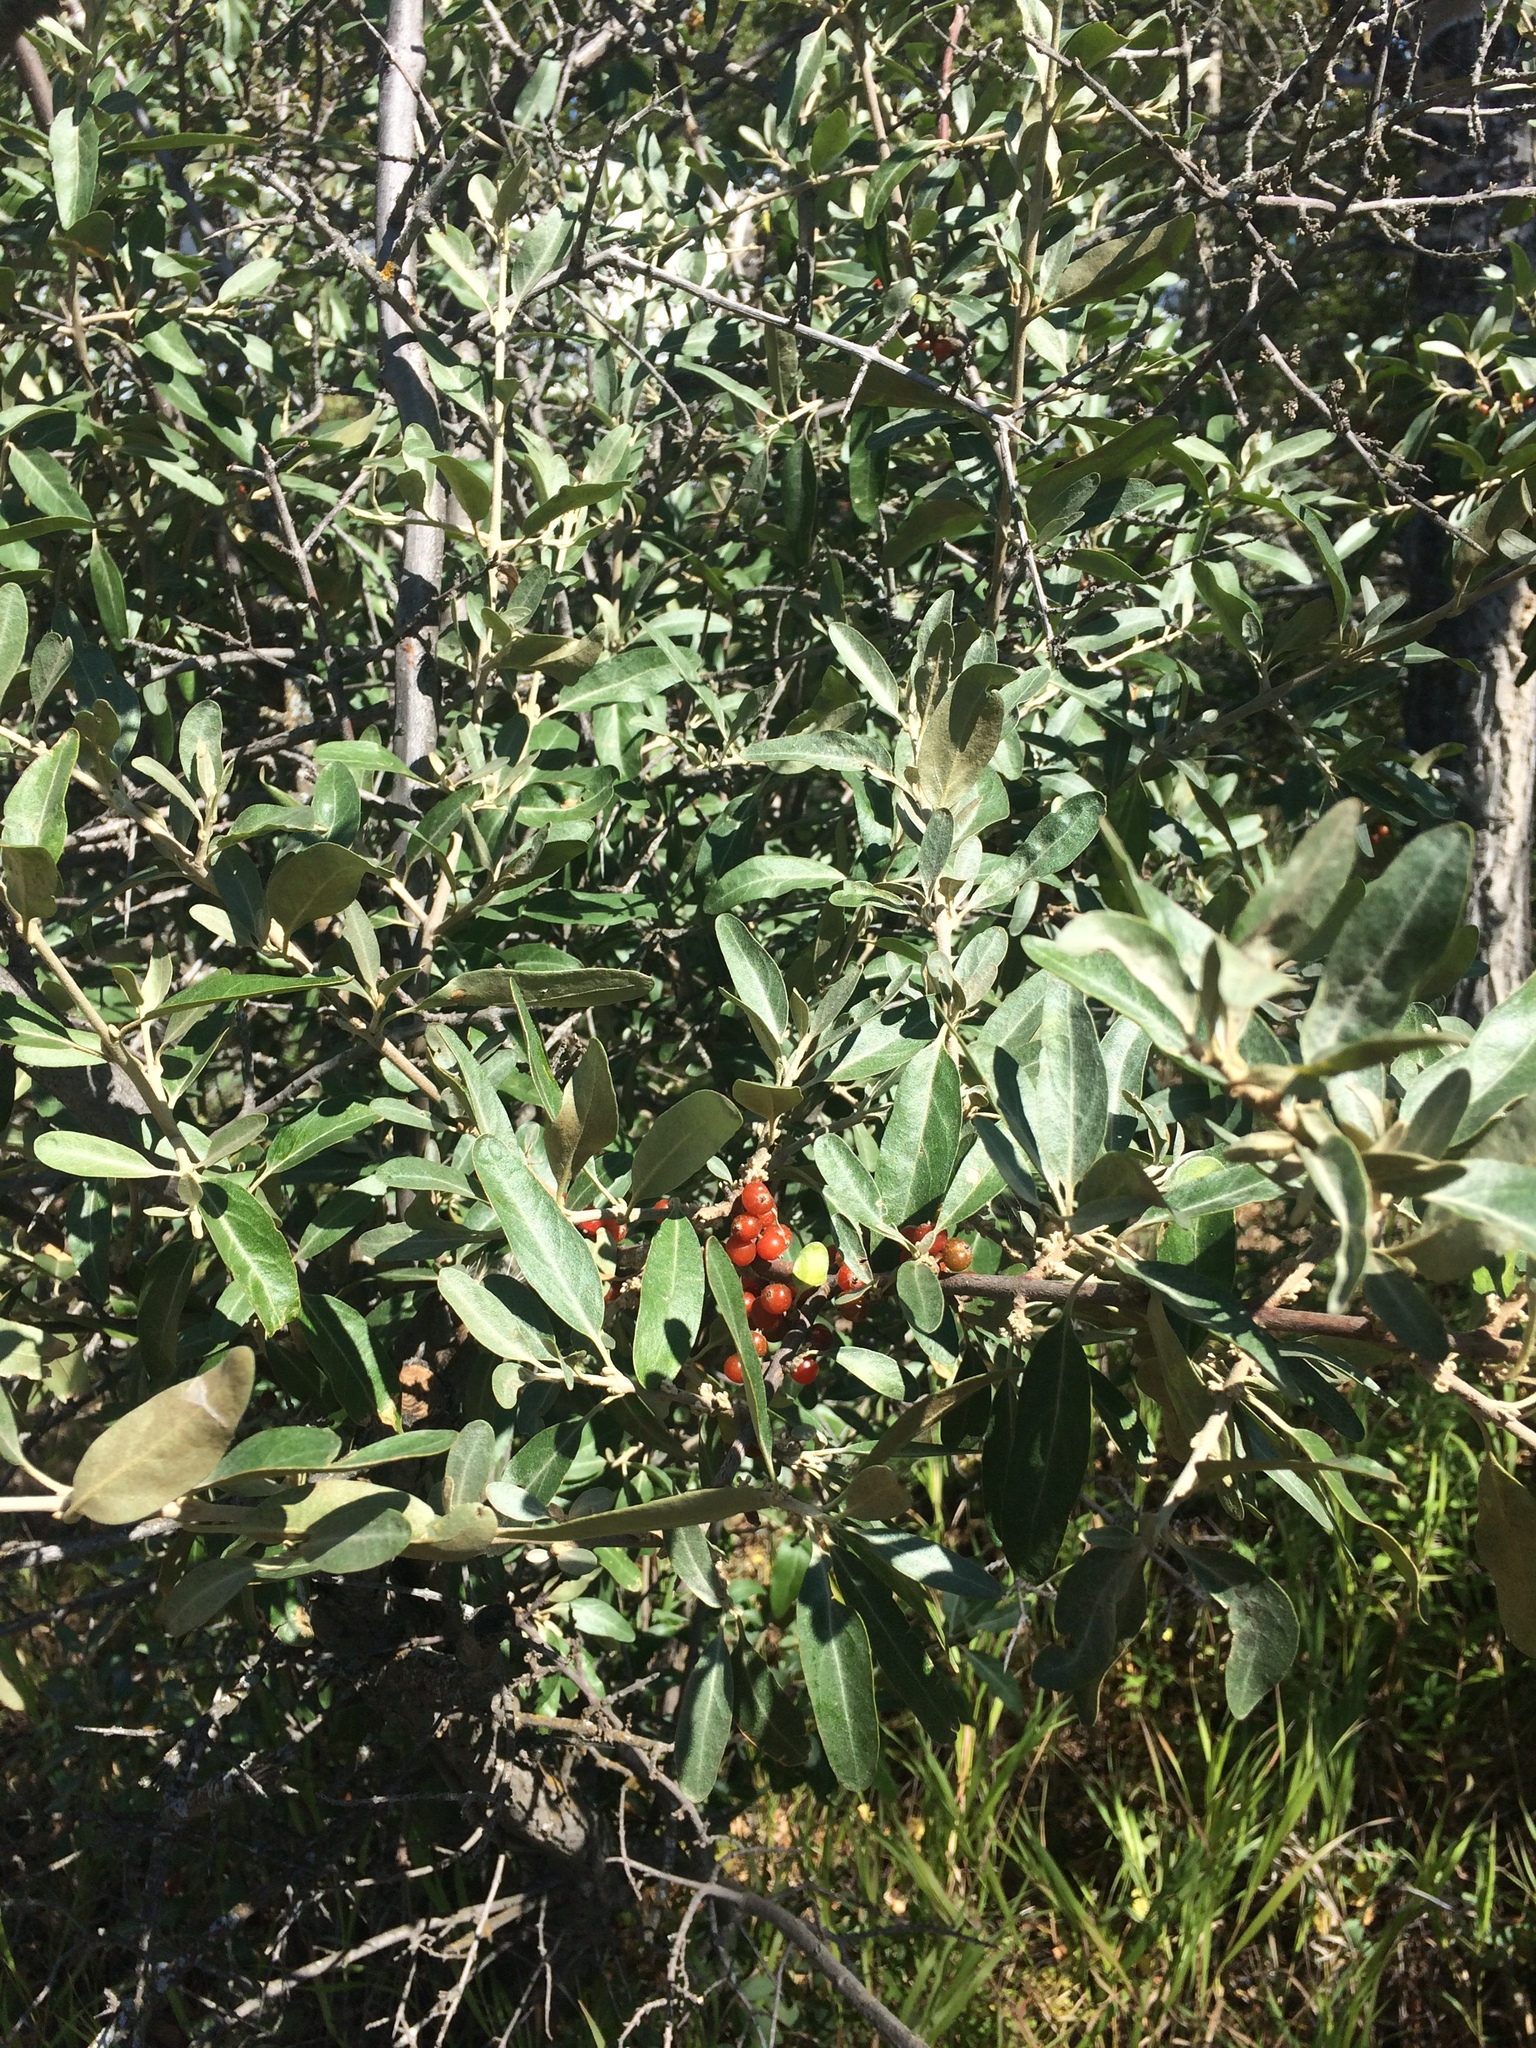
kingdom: Plantae
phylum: Tracheophyta
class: Magnoliopsida
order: Rosales
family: Elaeagnaceae
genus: Shepherdia
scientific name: Shepherdia argentea
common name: Silver buffaloberry
